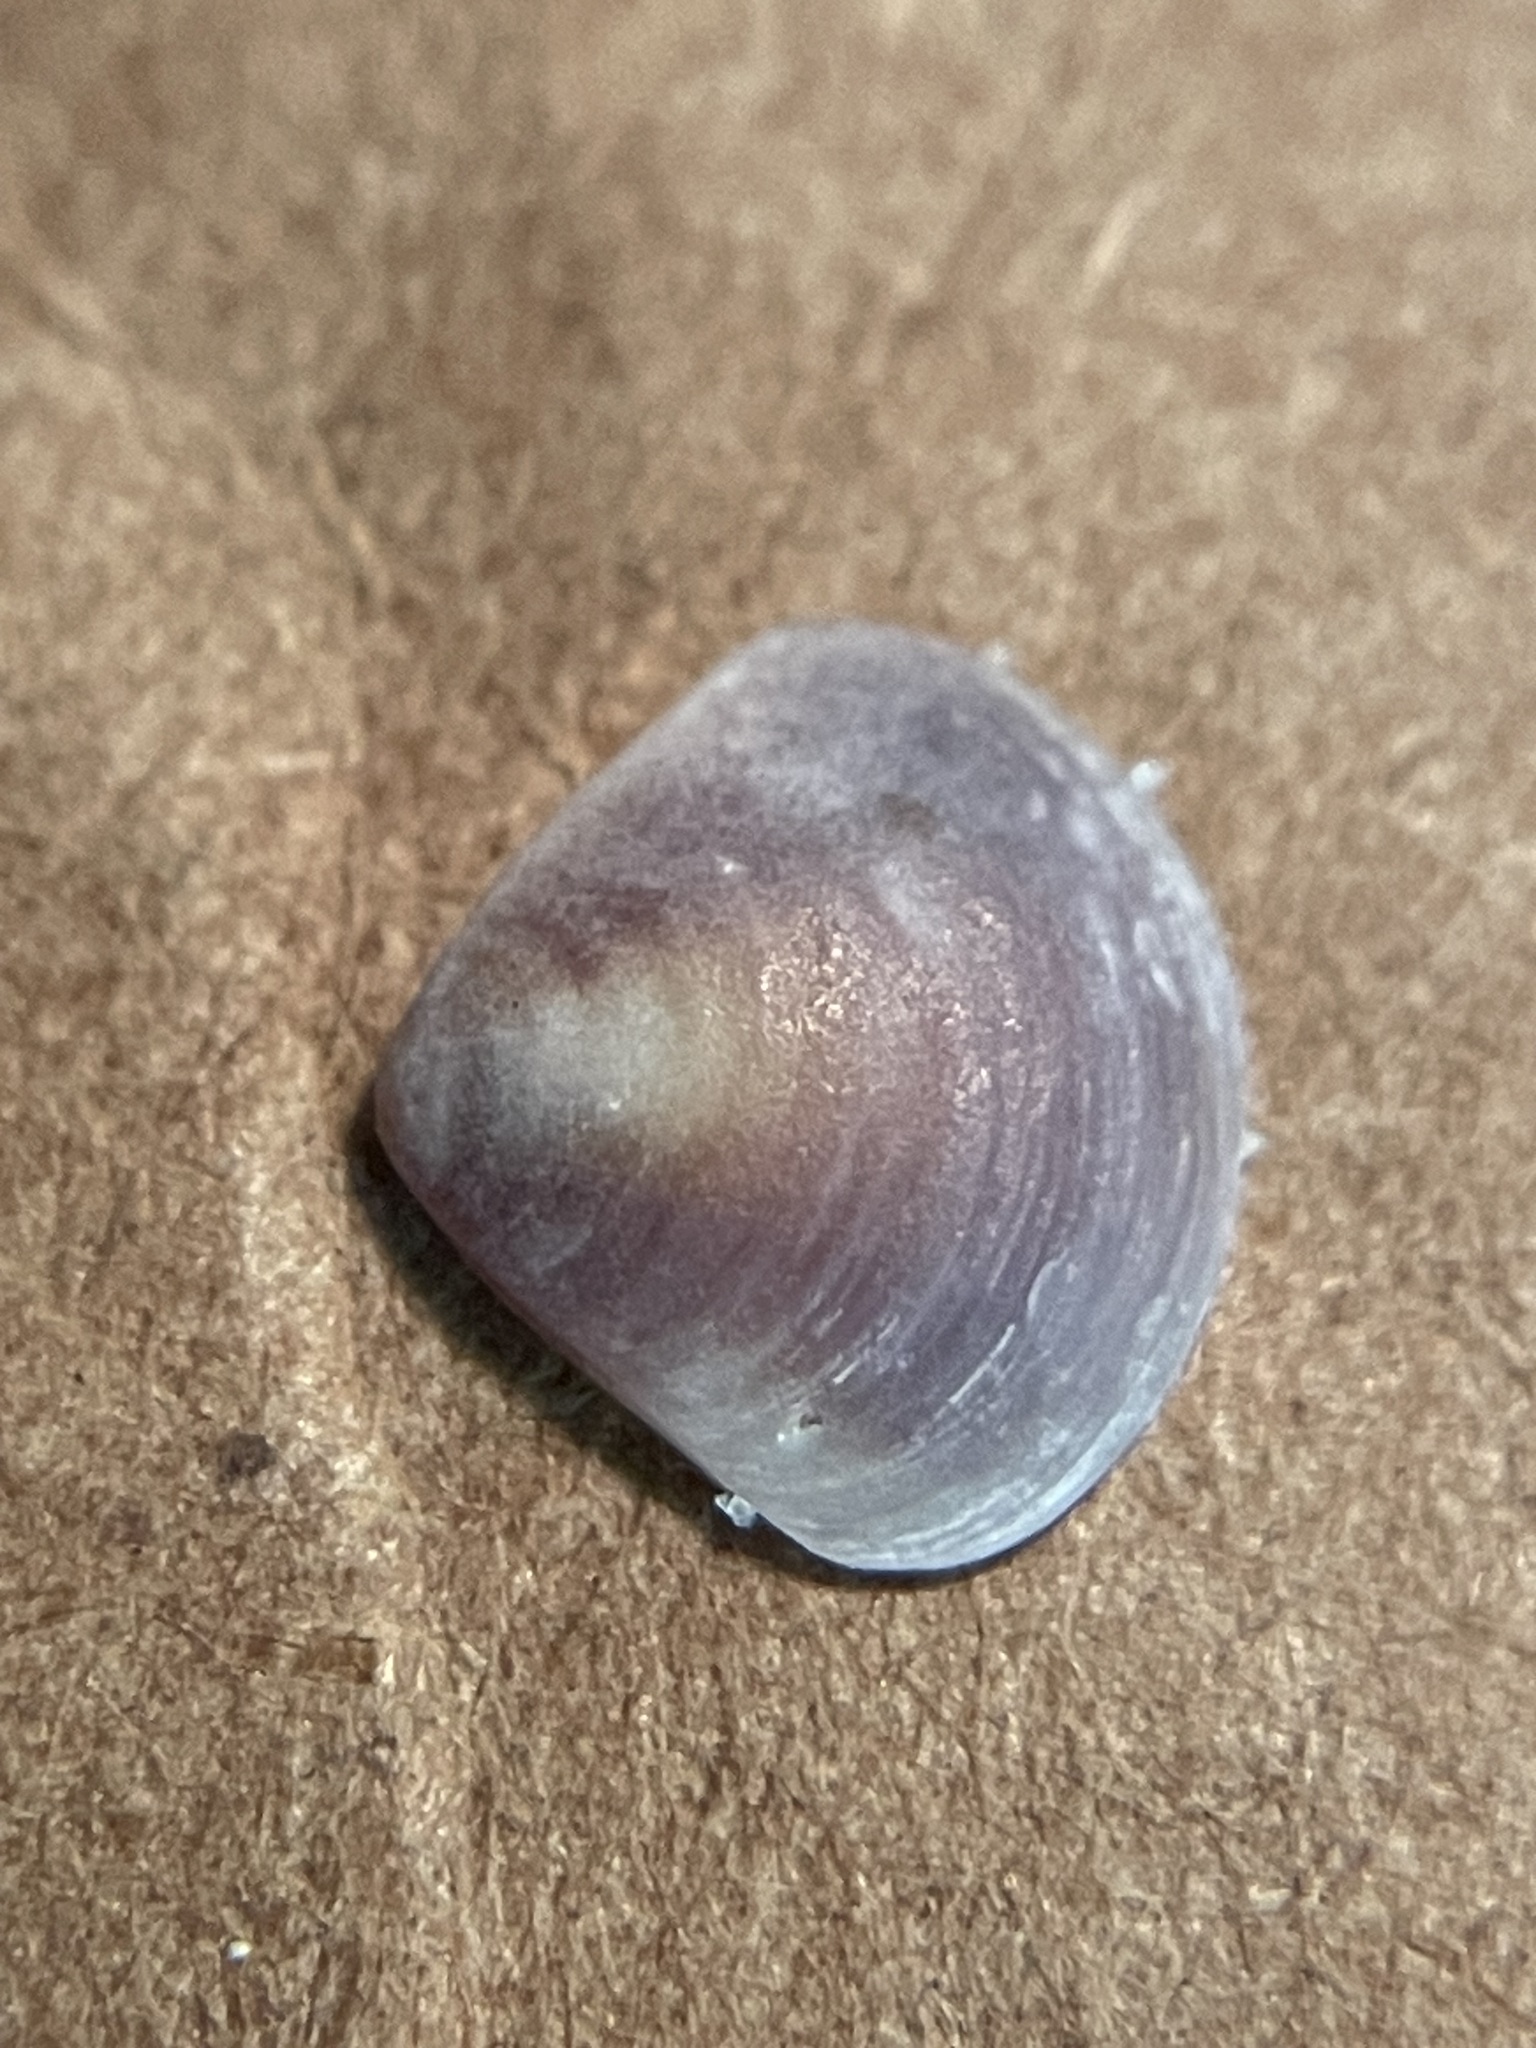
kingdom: Animalia
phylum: Mollusca
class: Bivalvia
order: Carditida
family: Crassatellidae
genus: Crassinella
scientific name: Crassinella lunulata
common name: Lunate crassinella
